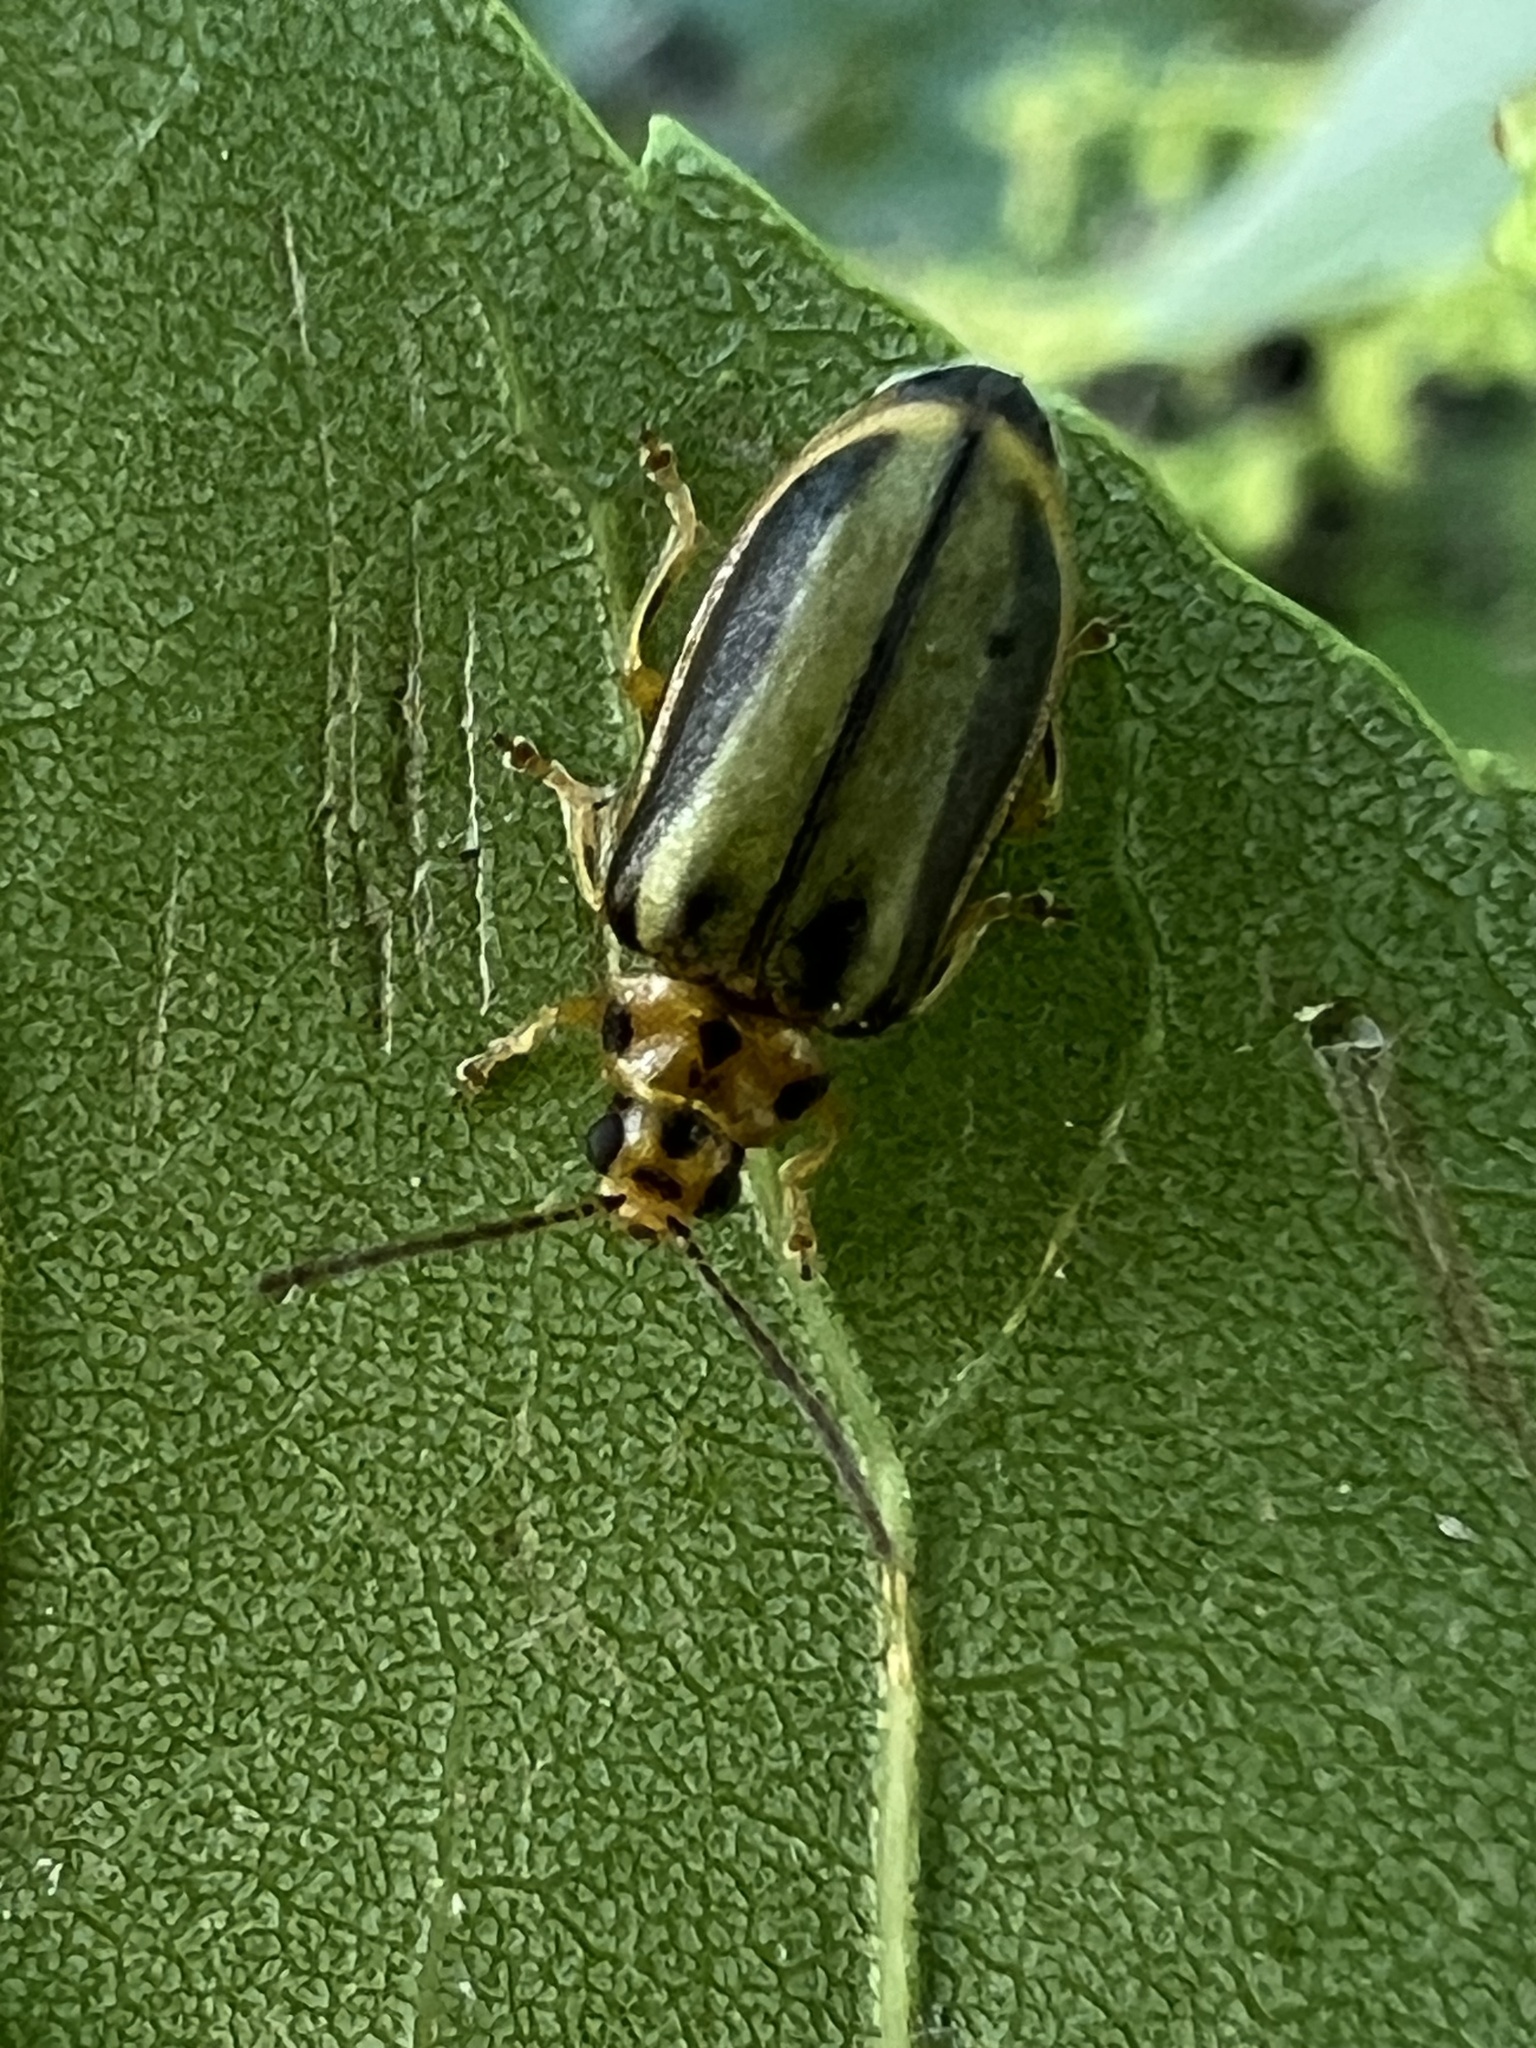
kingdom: Animalia
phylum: Arthropoda
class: Insecta
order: Coleoptera
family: Chrysomelidae
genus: Xanthogaleruca
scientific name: Xanthogaleruca luteola
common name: Elm leaf beetle
